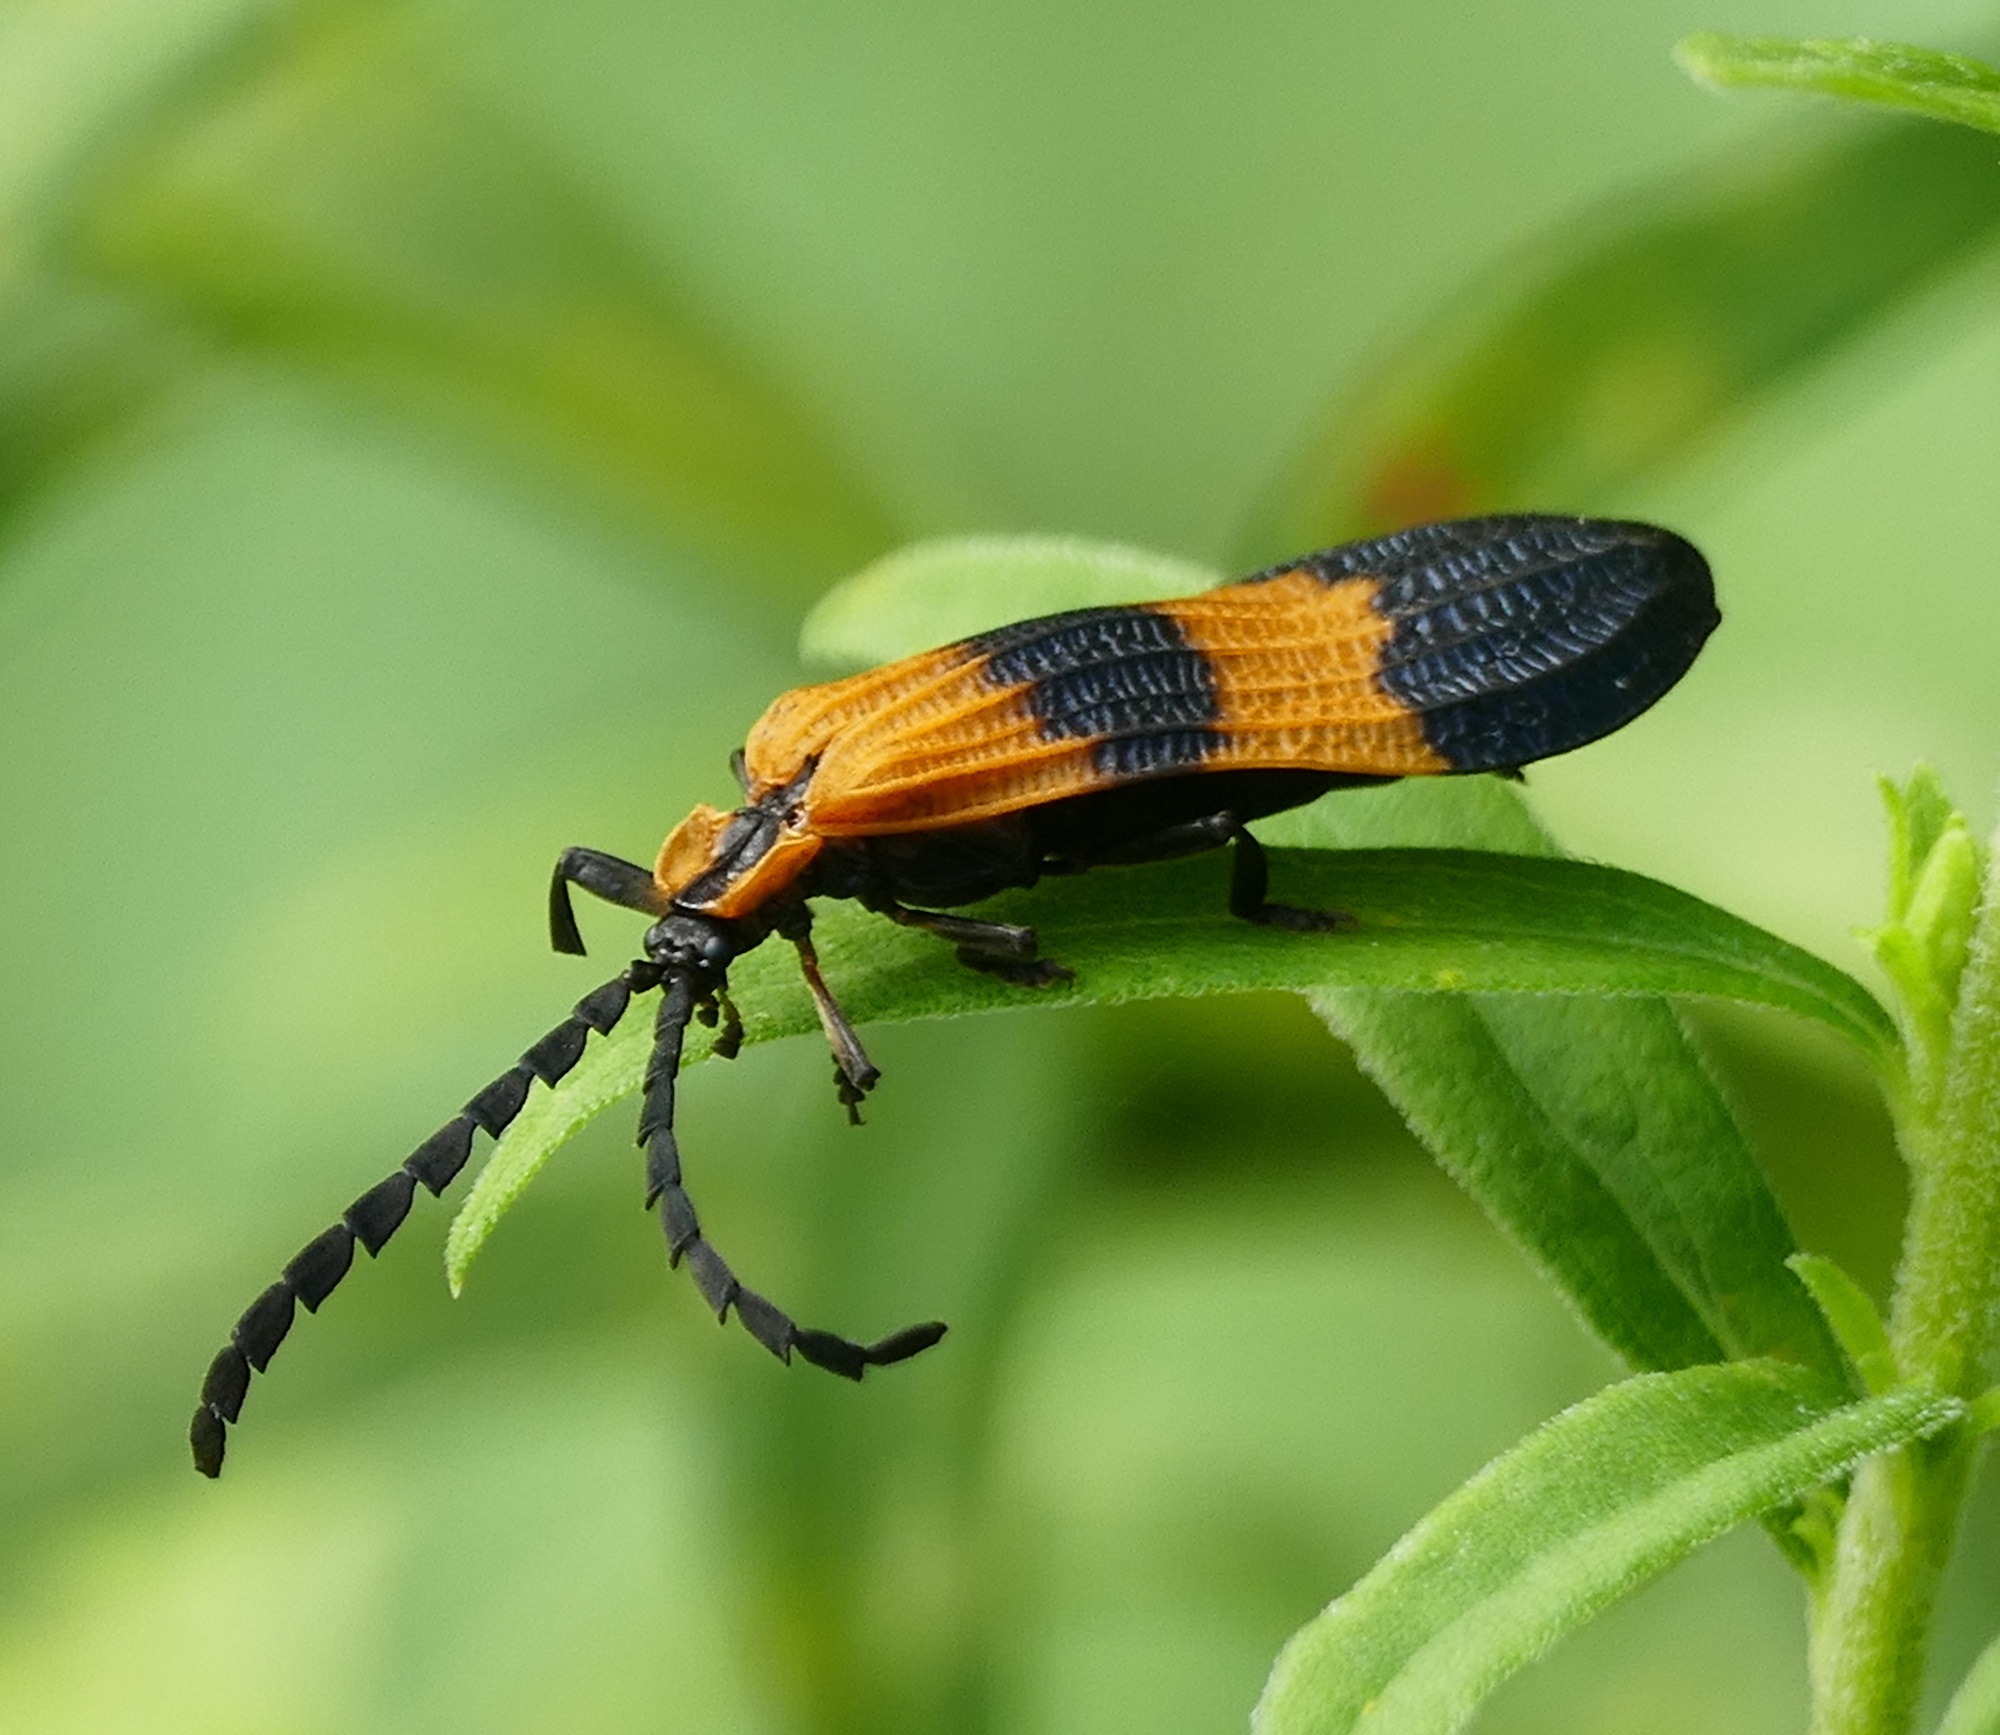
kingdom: Animalia
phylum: Arthropoda
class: Insecta
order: Coleoptera
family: Lycidae
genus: Calopteron
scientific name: Calopteron terminale
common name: End band net-winged beetle
